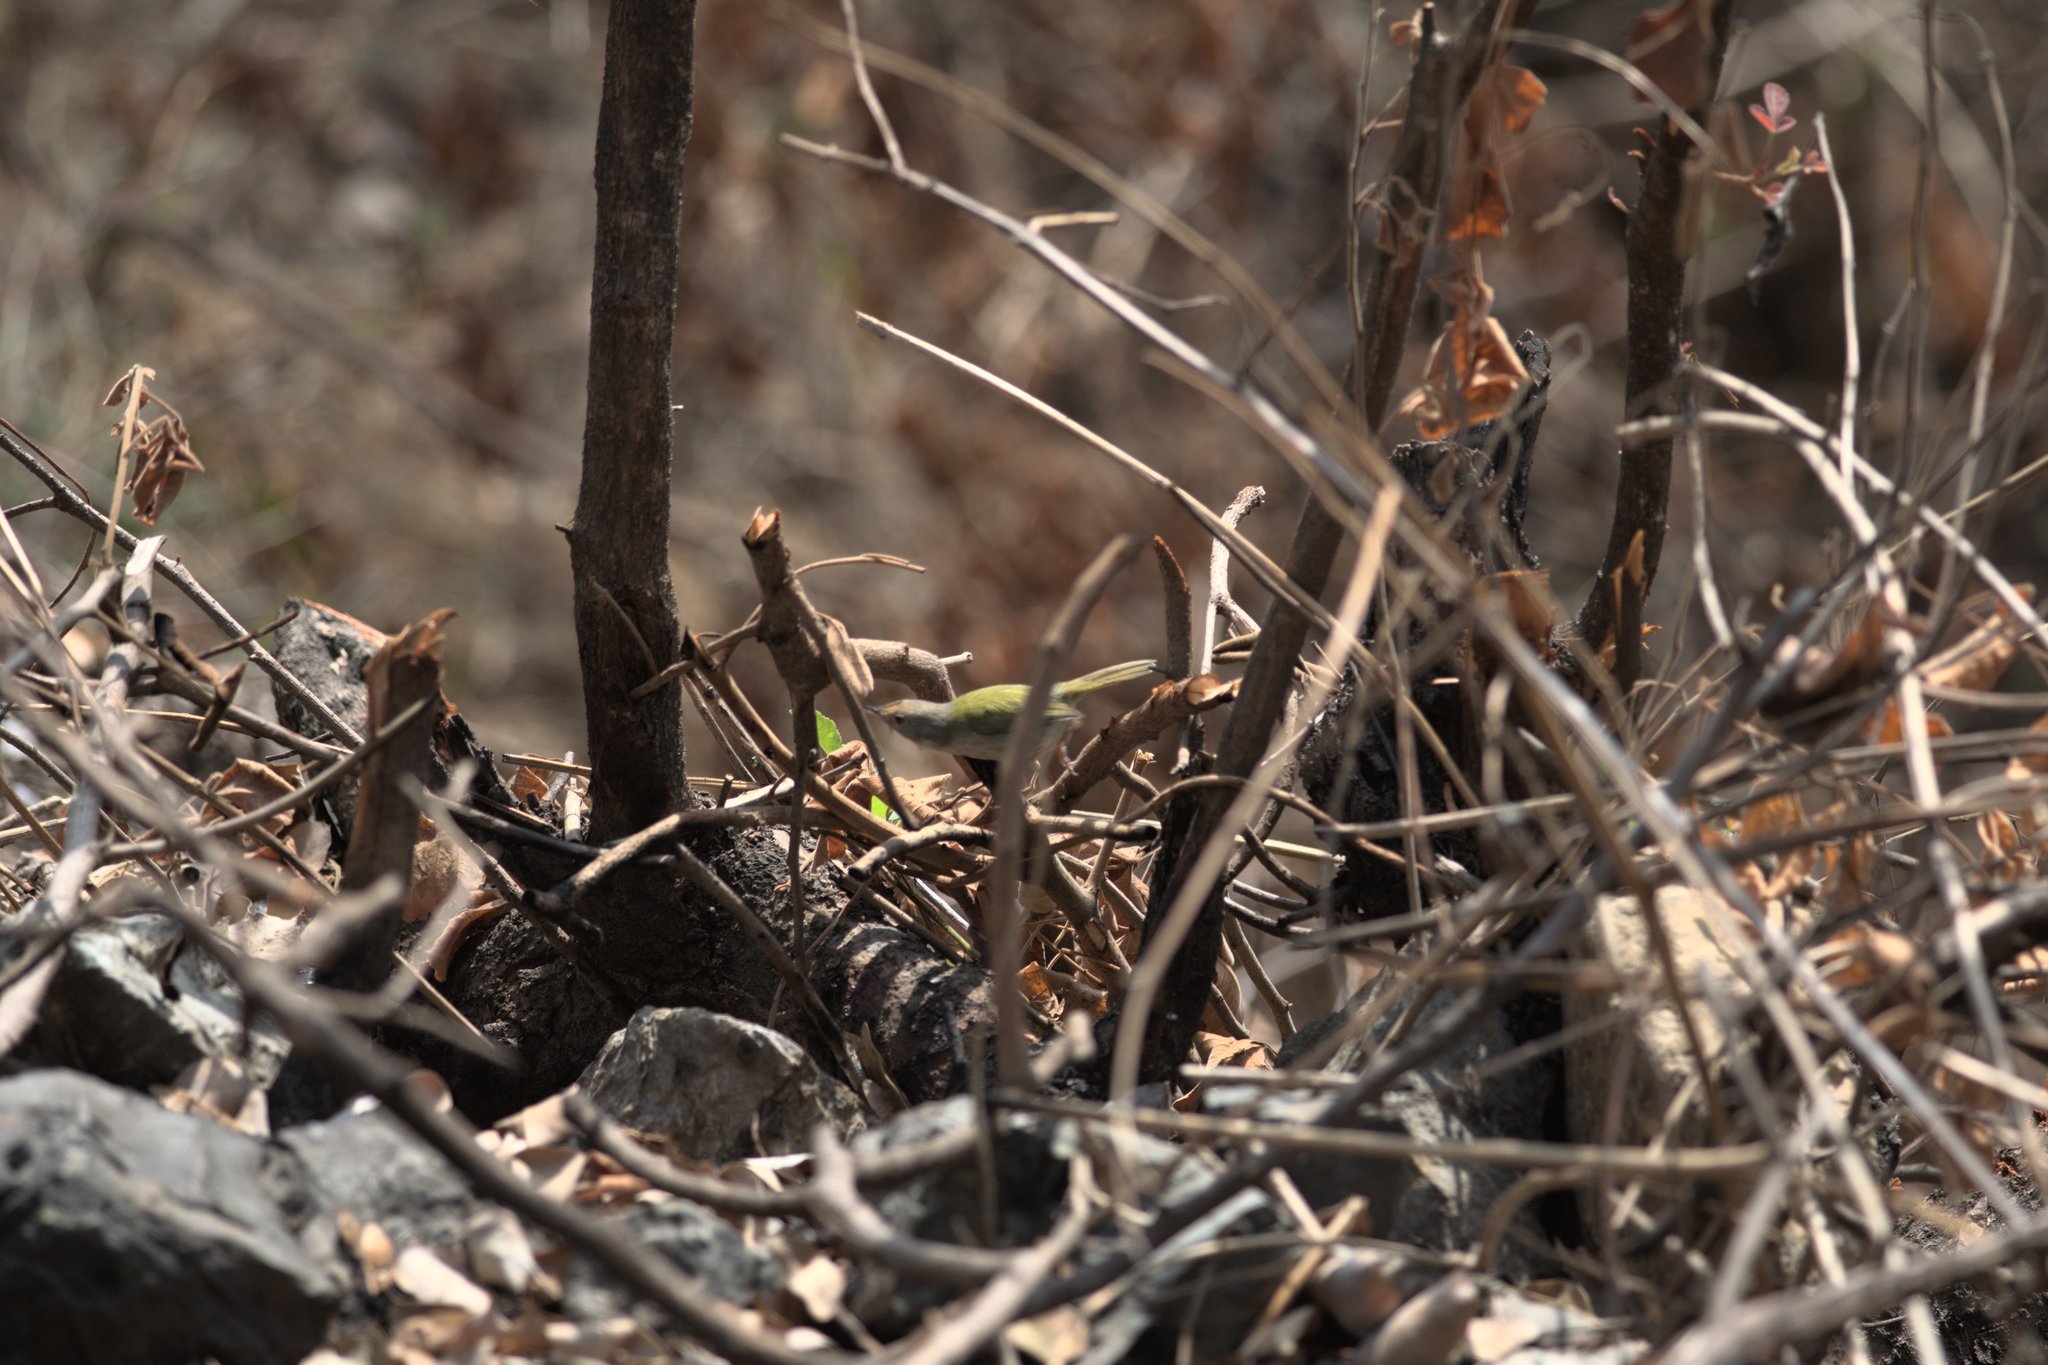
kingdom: Animalia
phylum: Chordata
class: Aves
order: Passeriformes
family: Cisticolidae
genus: Orthotomus
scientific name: Orthotomus sutorius
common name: Common tailorbird
